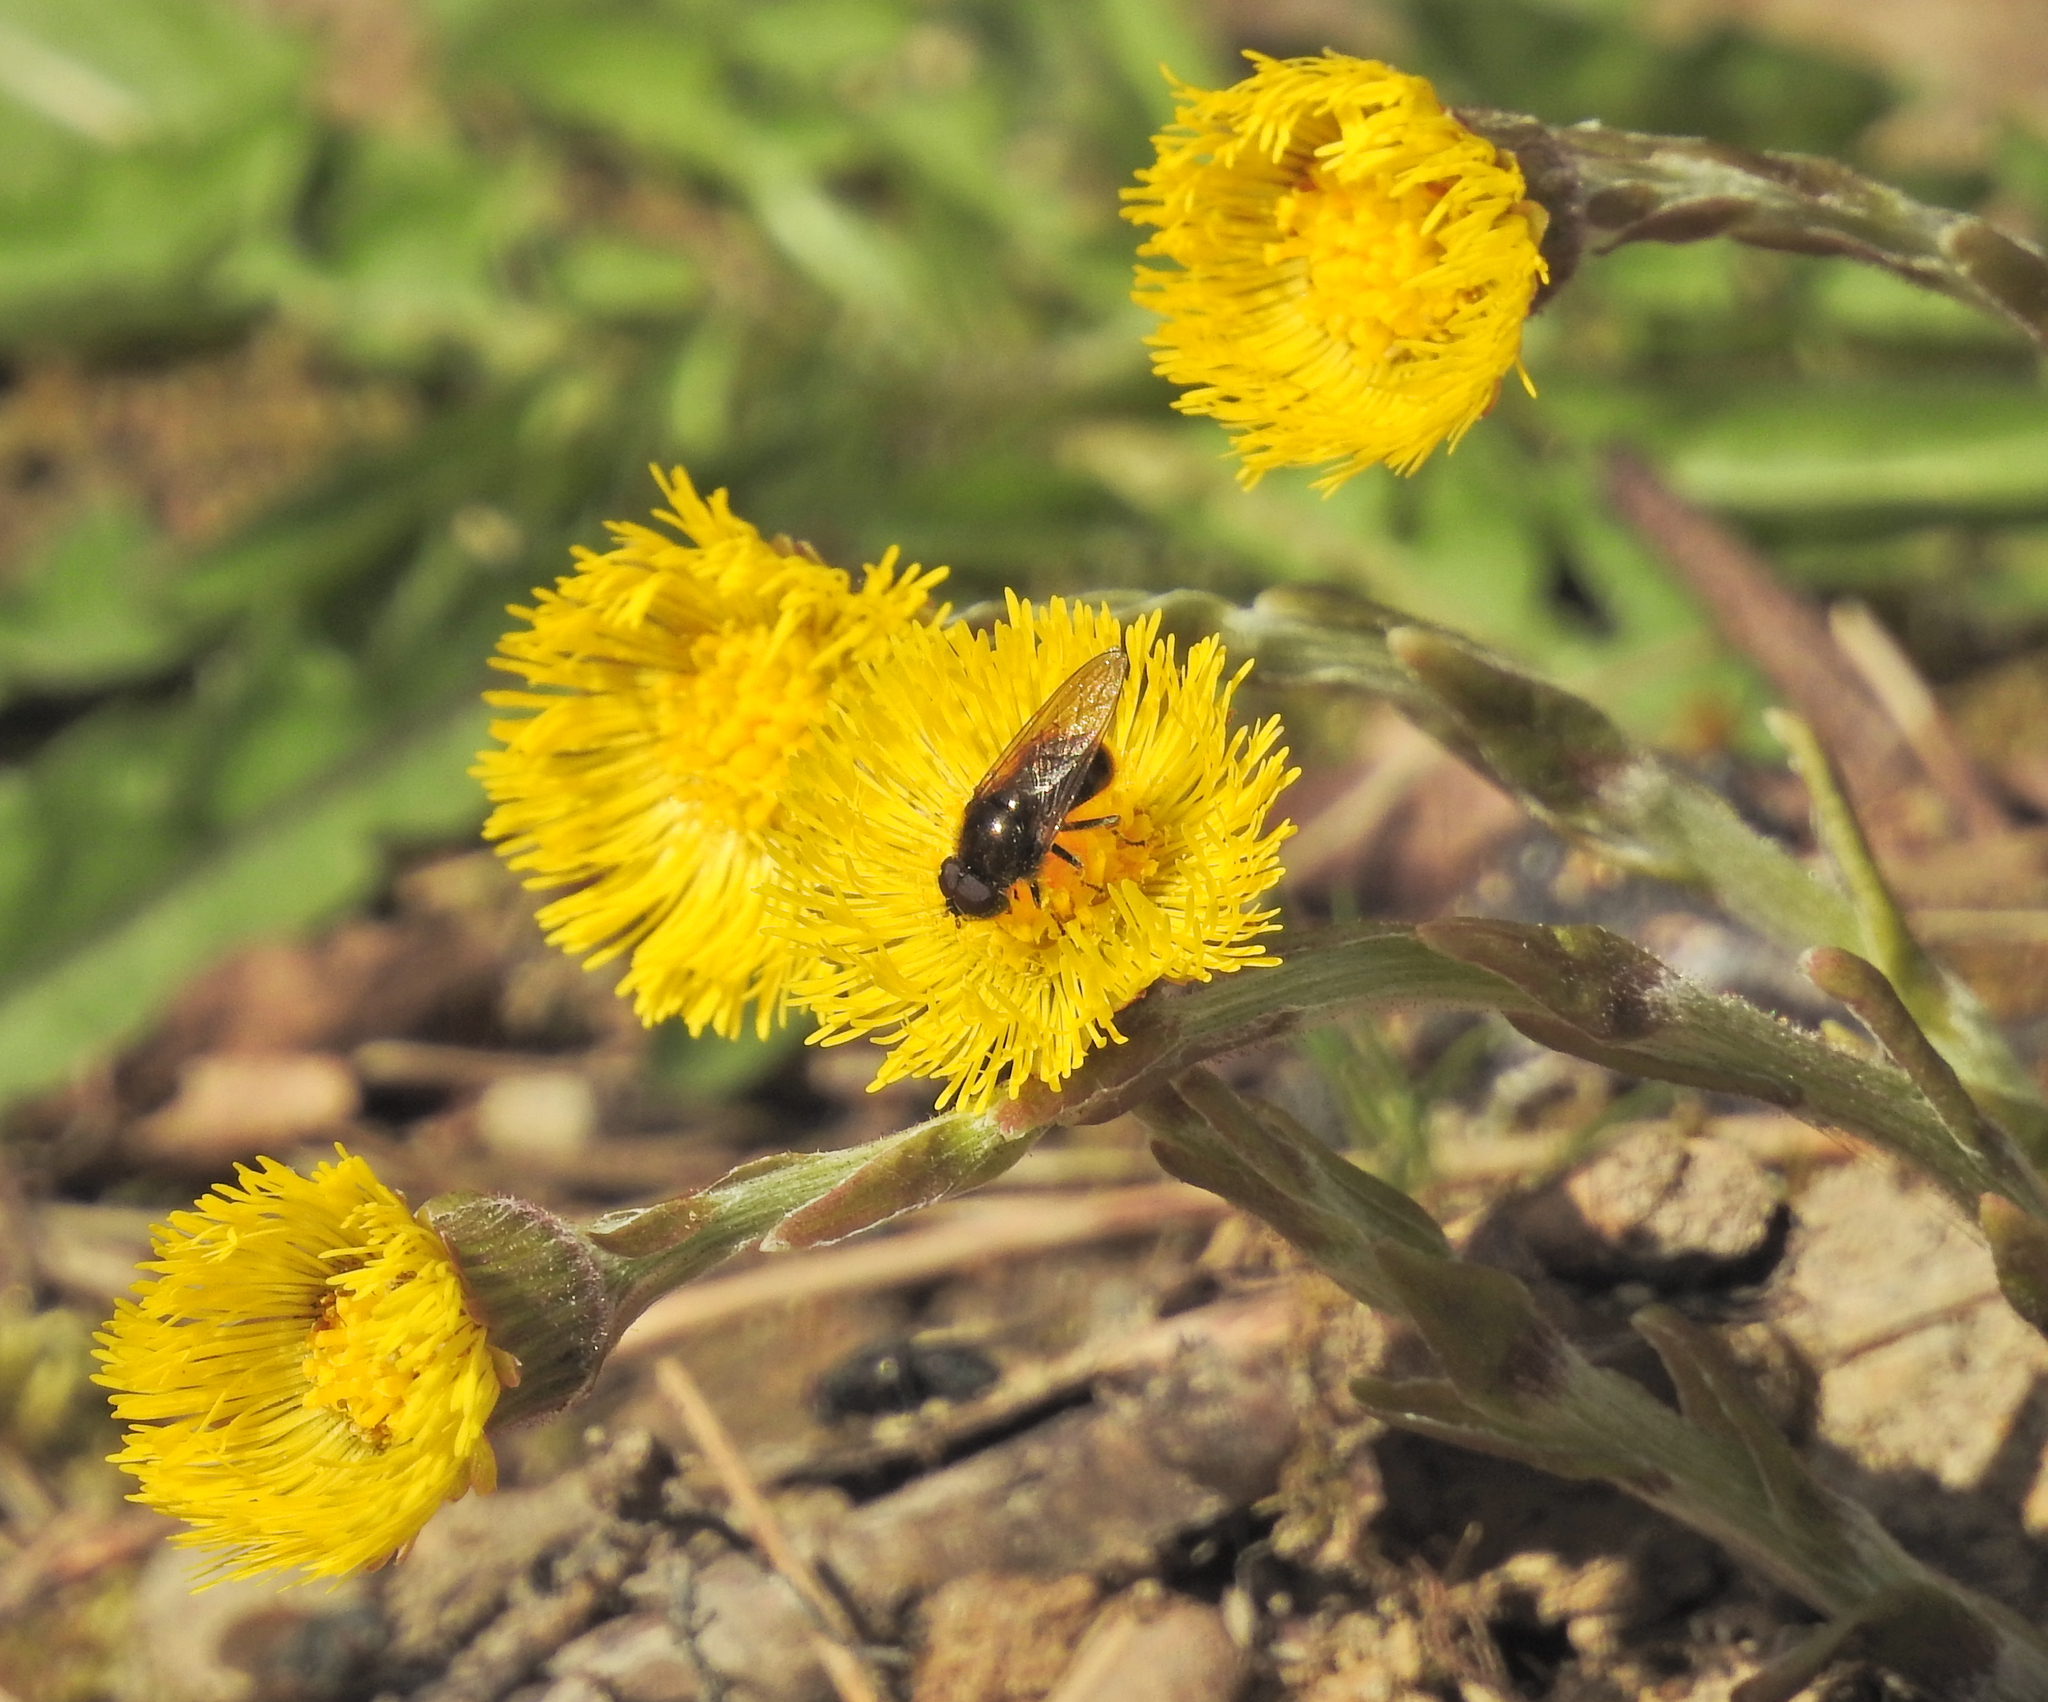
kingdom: Plantae
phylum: Tracheophyta
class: Magnoliopsida
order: Asterales
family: Asteraceae
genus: Tussilago
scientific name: Tussilago farfara
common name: Coltsfoot
